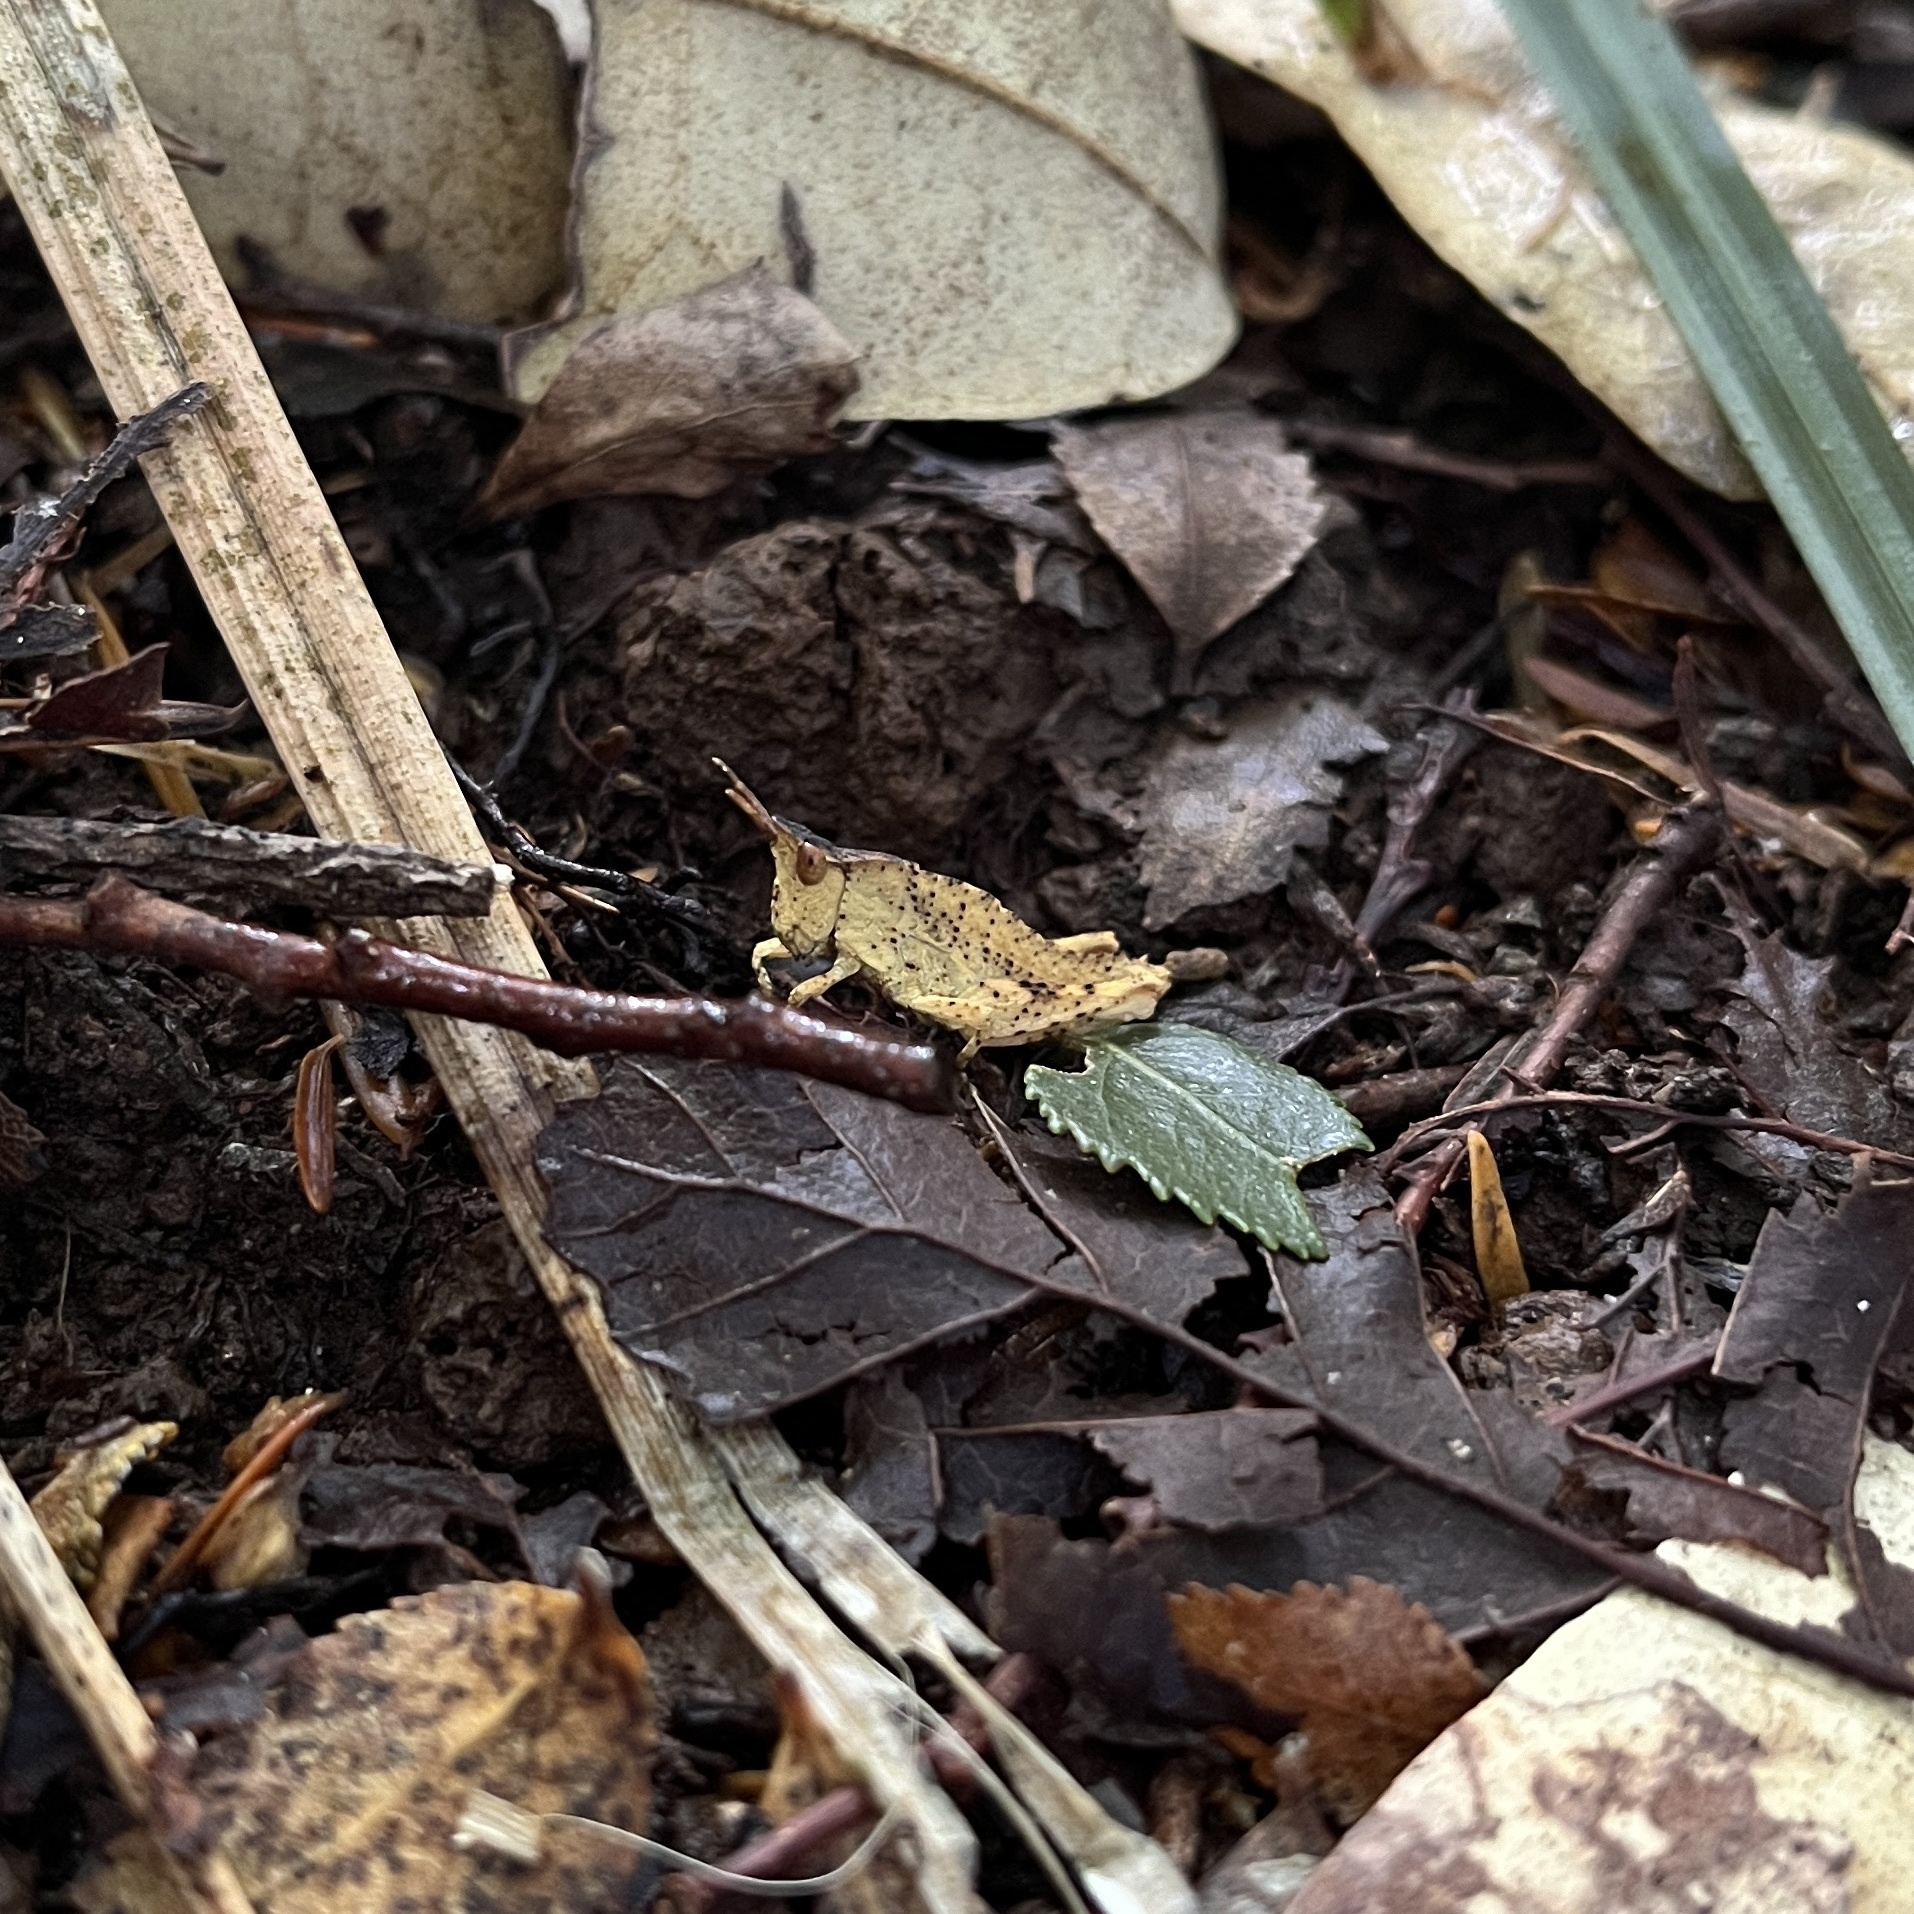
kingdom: Animalia
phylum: Arthropoda
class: Insecta
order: Orthoptera
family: Tristiridae
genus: Tropidostethus
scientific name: Tropidostethus angusticollis
